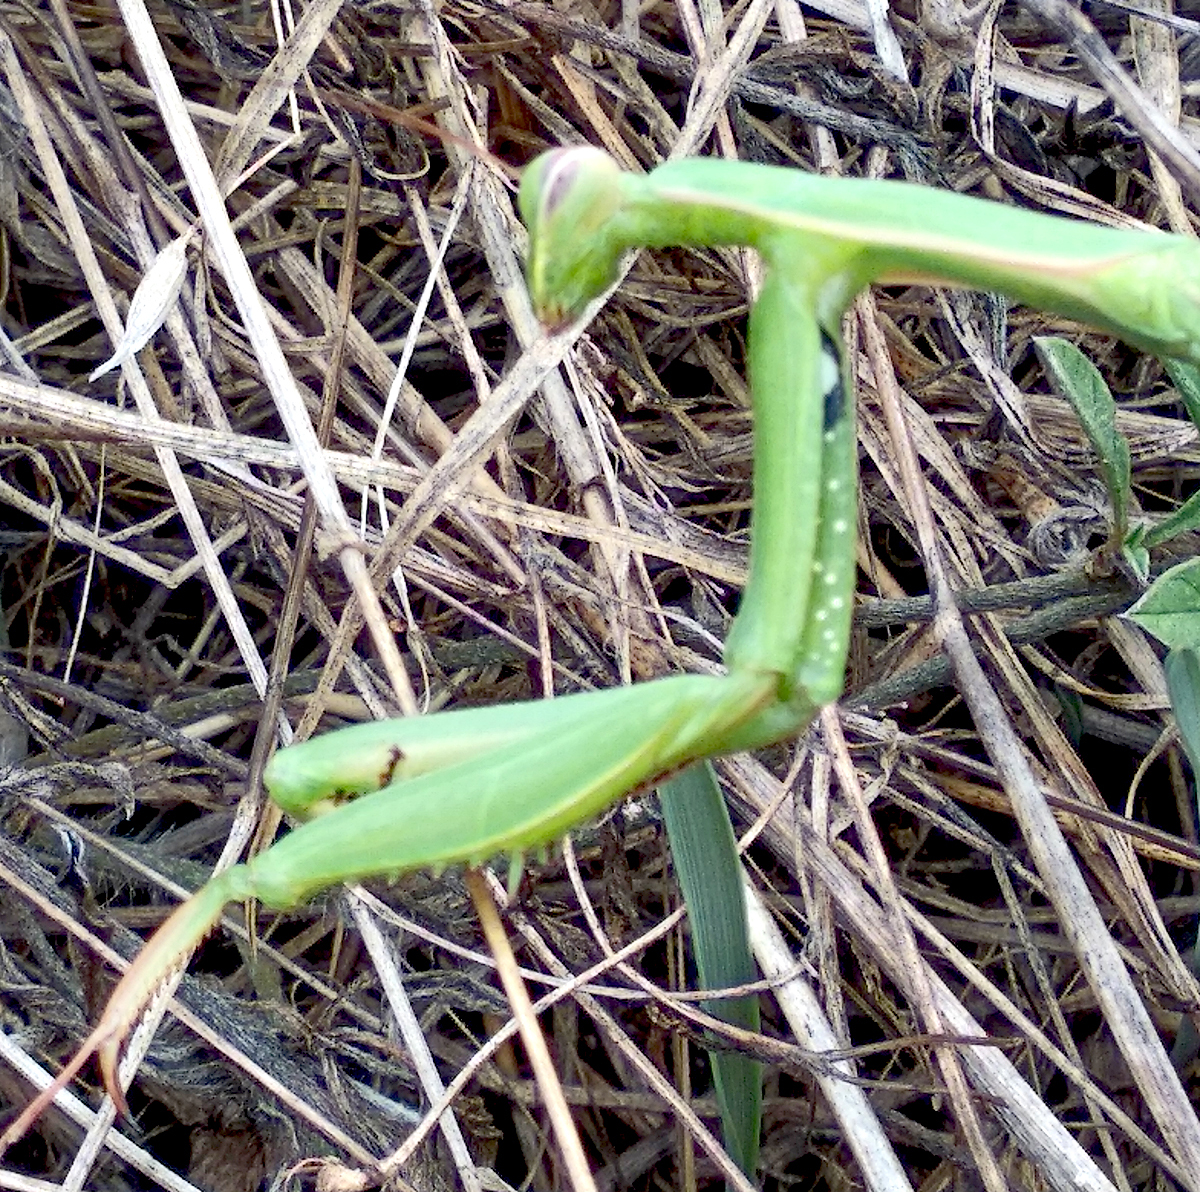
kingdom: Animalia
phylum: Arthropoda
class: Insecta
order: Mantodea
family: Mantidae
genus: Mantis
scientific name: Mantis religiosa
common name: Praying mantis
